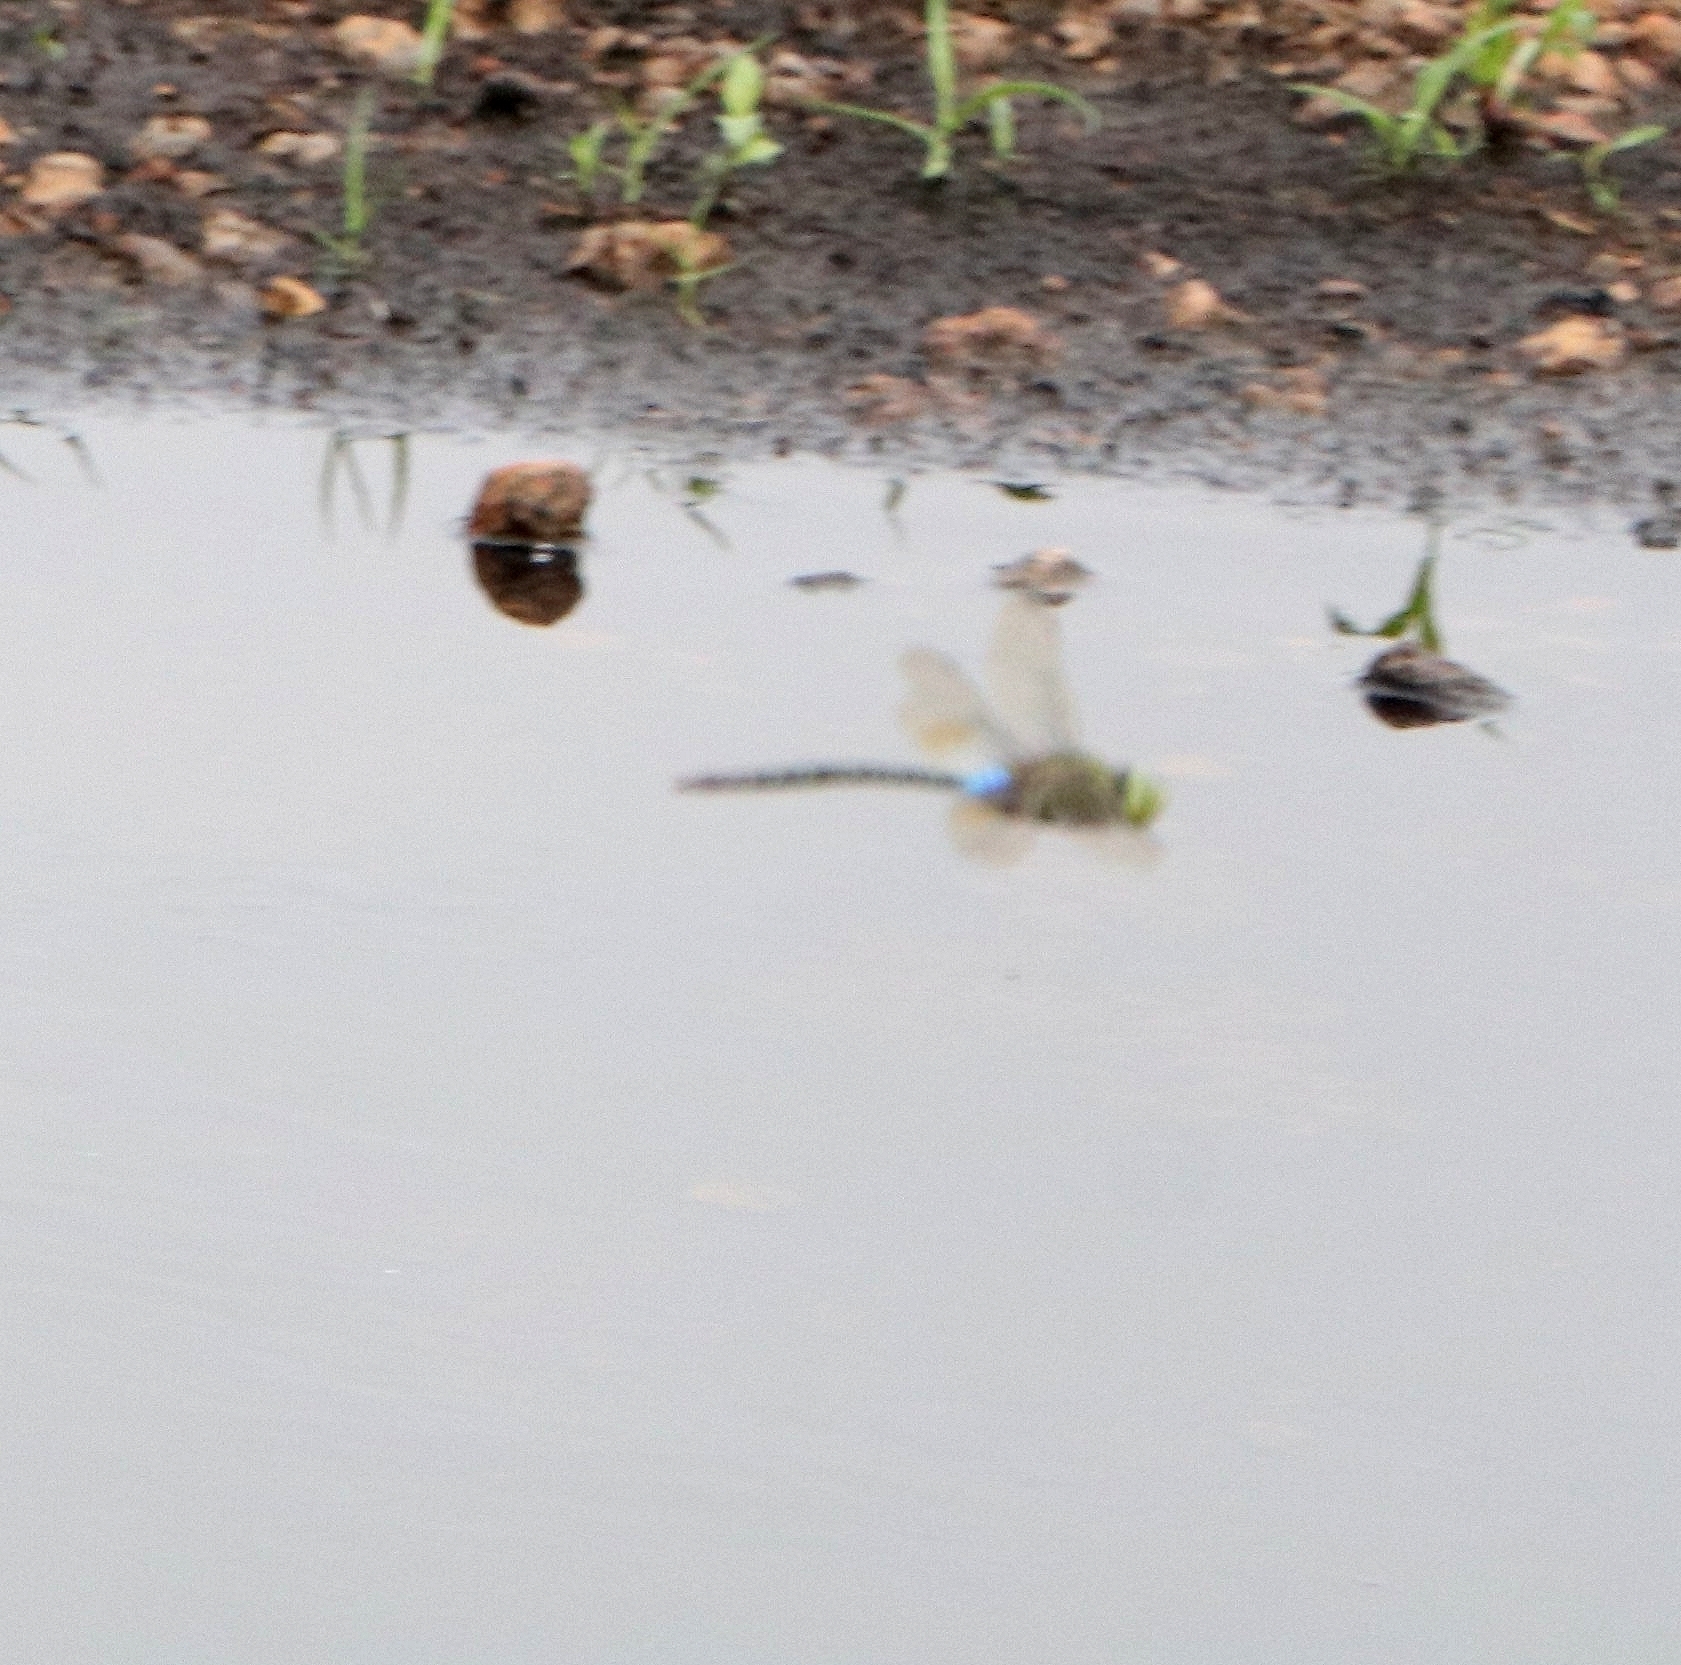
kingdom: Animalia
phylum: Arthropoda
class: Insecta
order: Odonata
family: Aeshnidae
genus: Anax
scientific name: Anax guttatus
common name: Emperor
